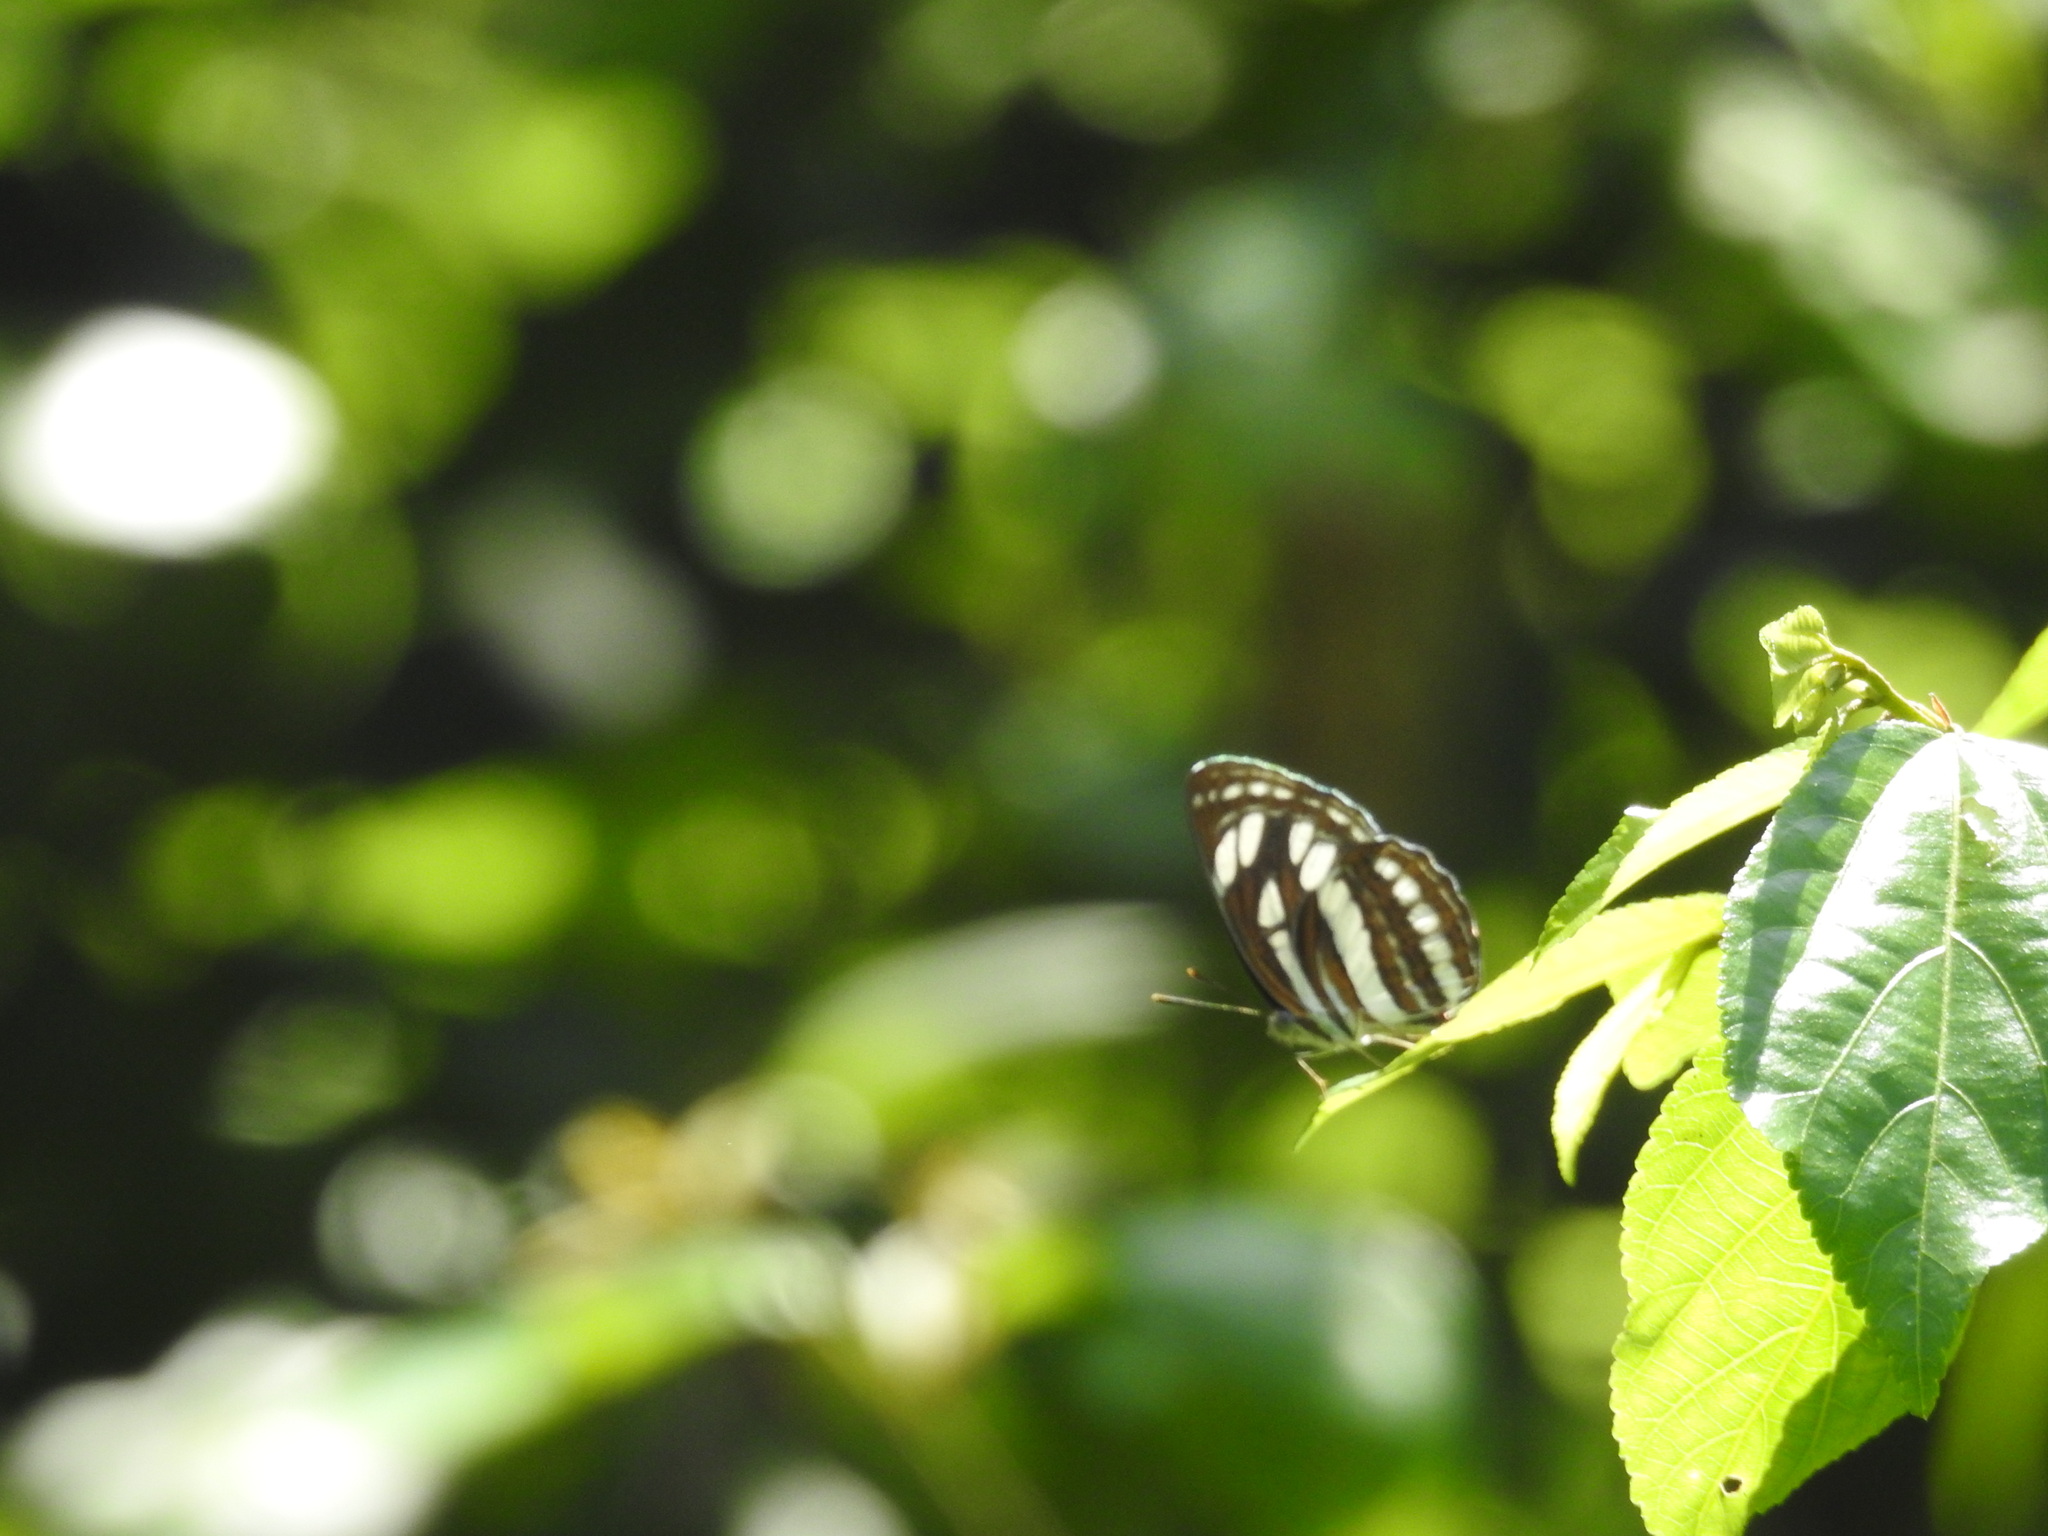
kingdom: Animalia
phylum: Arthropoda
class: Insecta
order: Lepidoptera
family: Nymphalidae
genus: Neptis
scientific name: Neptis hylas
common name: Common sailer
